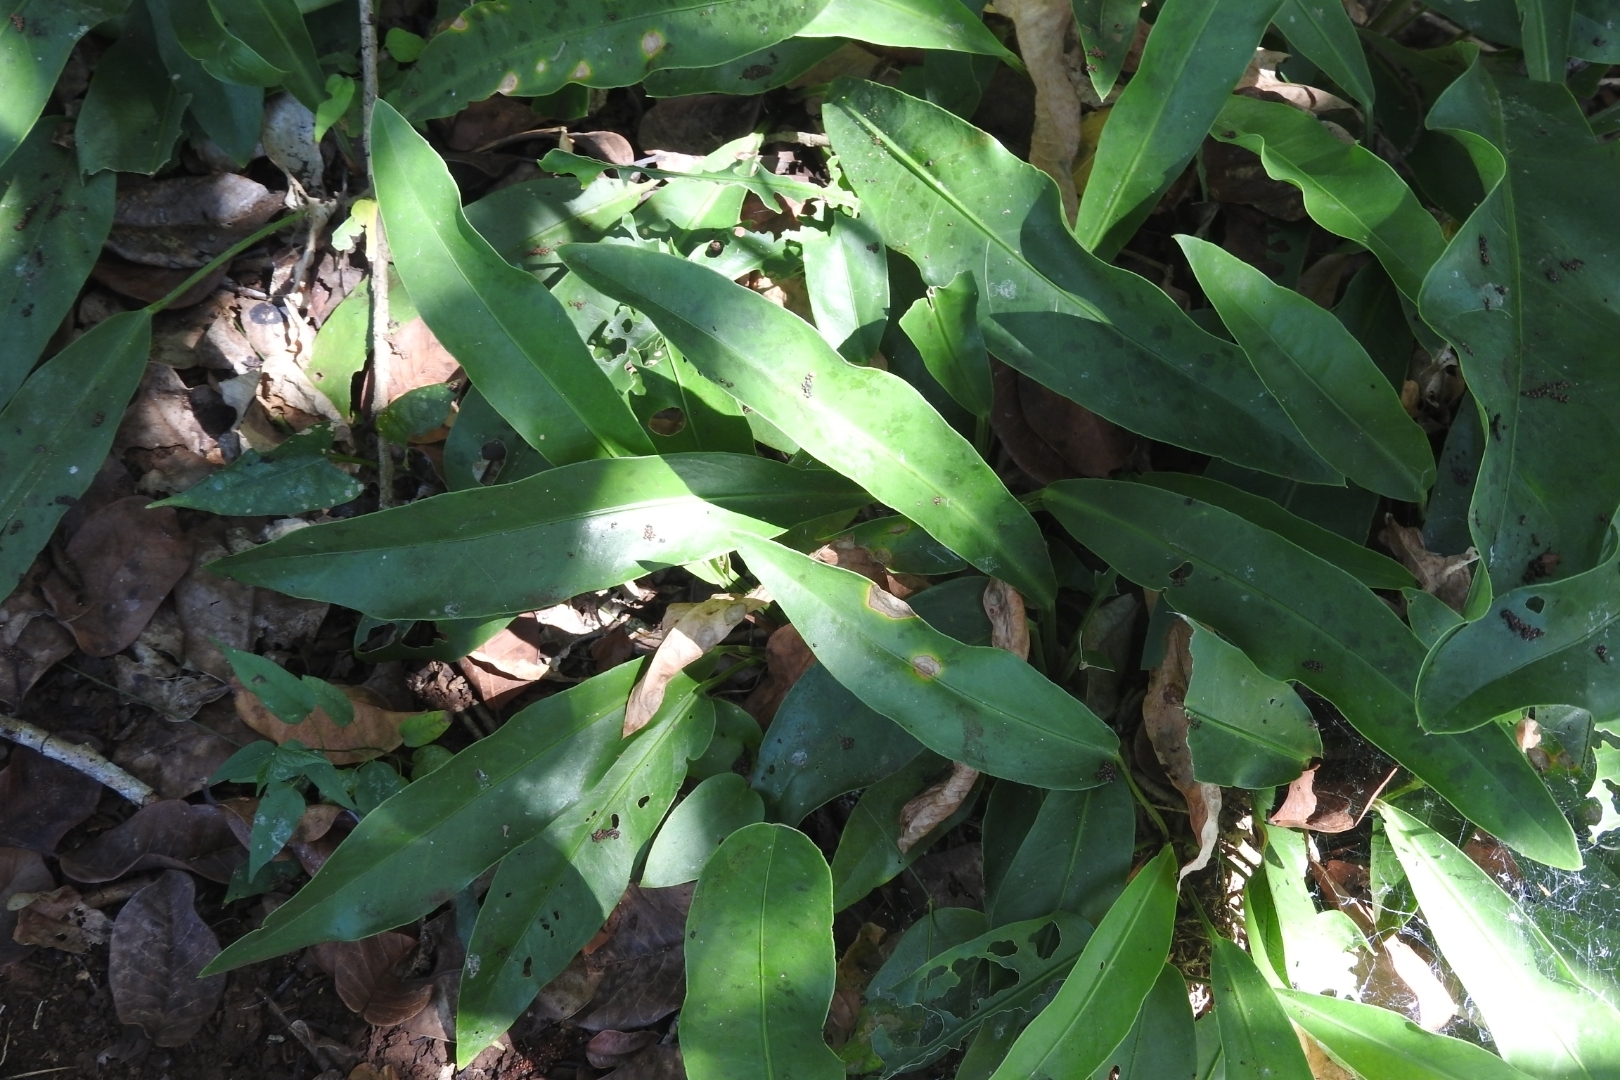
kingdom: Plantae
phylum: Tracheophyta
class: Liliopsida
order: Alismatales
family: Araceae
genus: Anthurium
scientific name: Anthurium schlechtendalii
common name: Laceleaf
